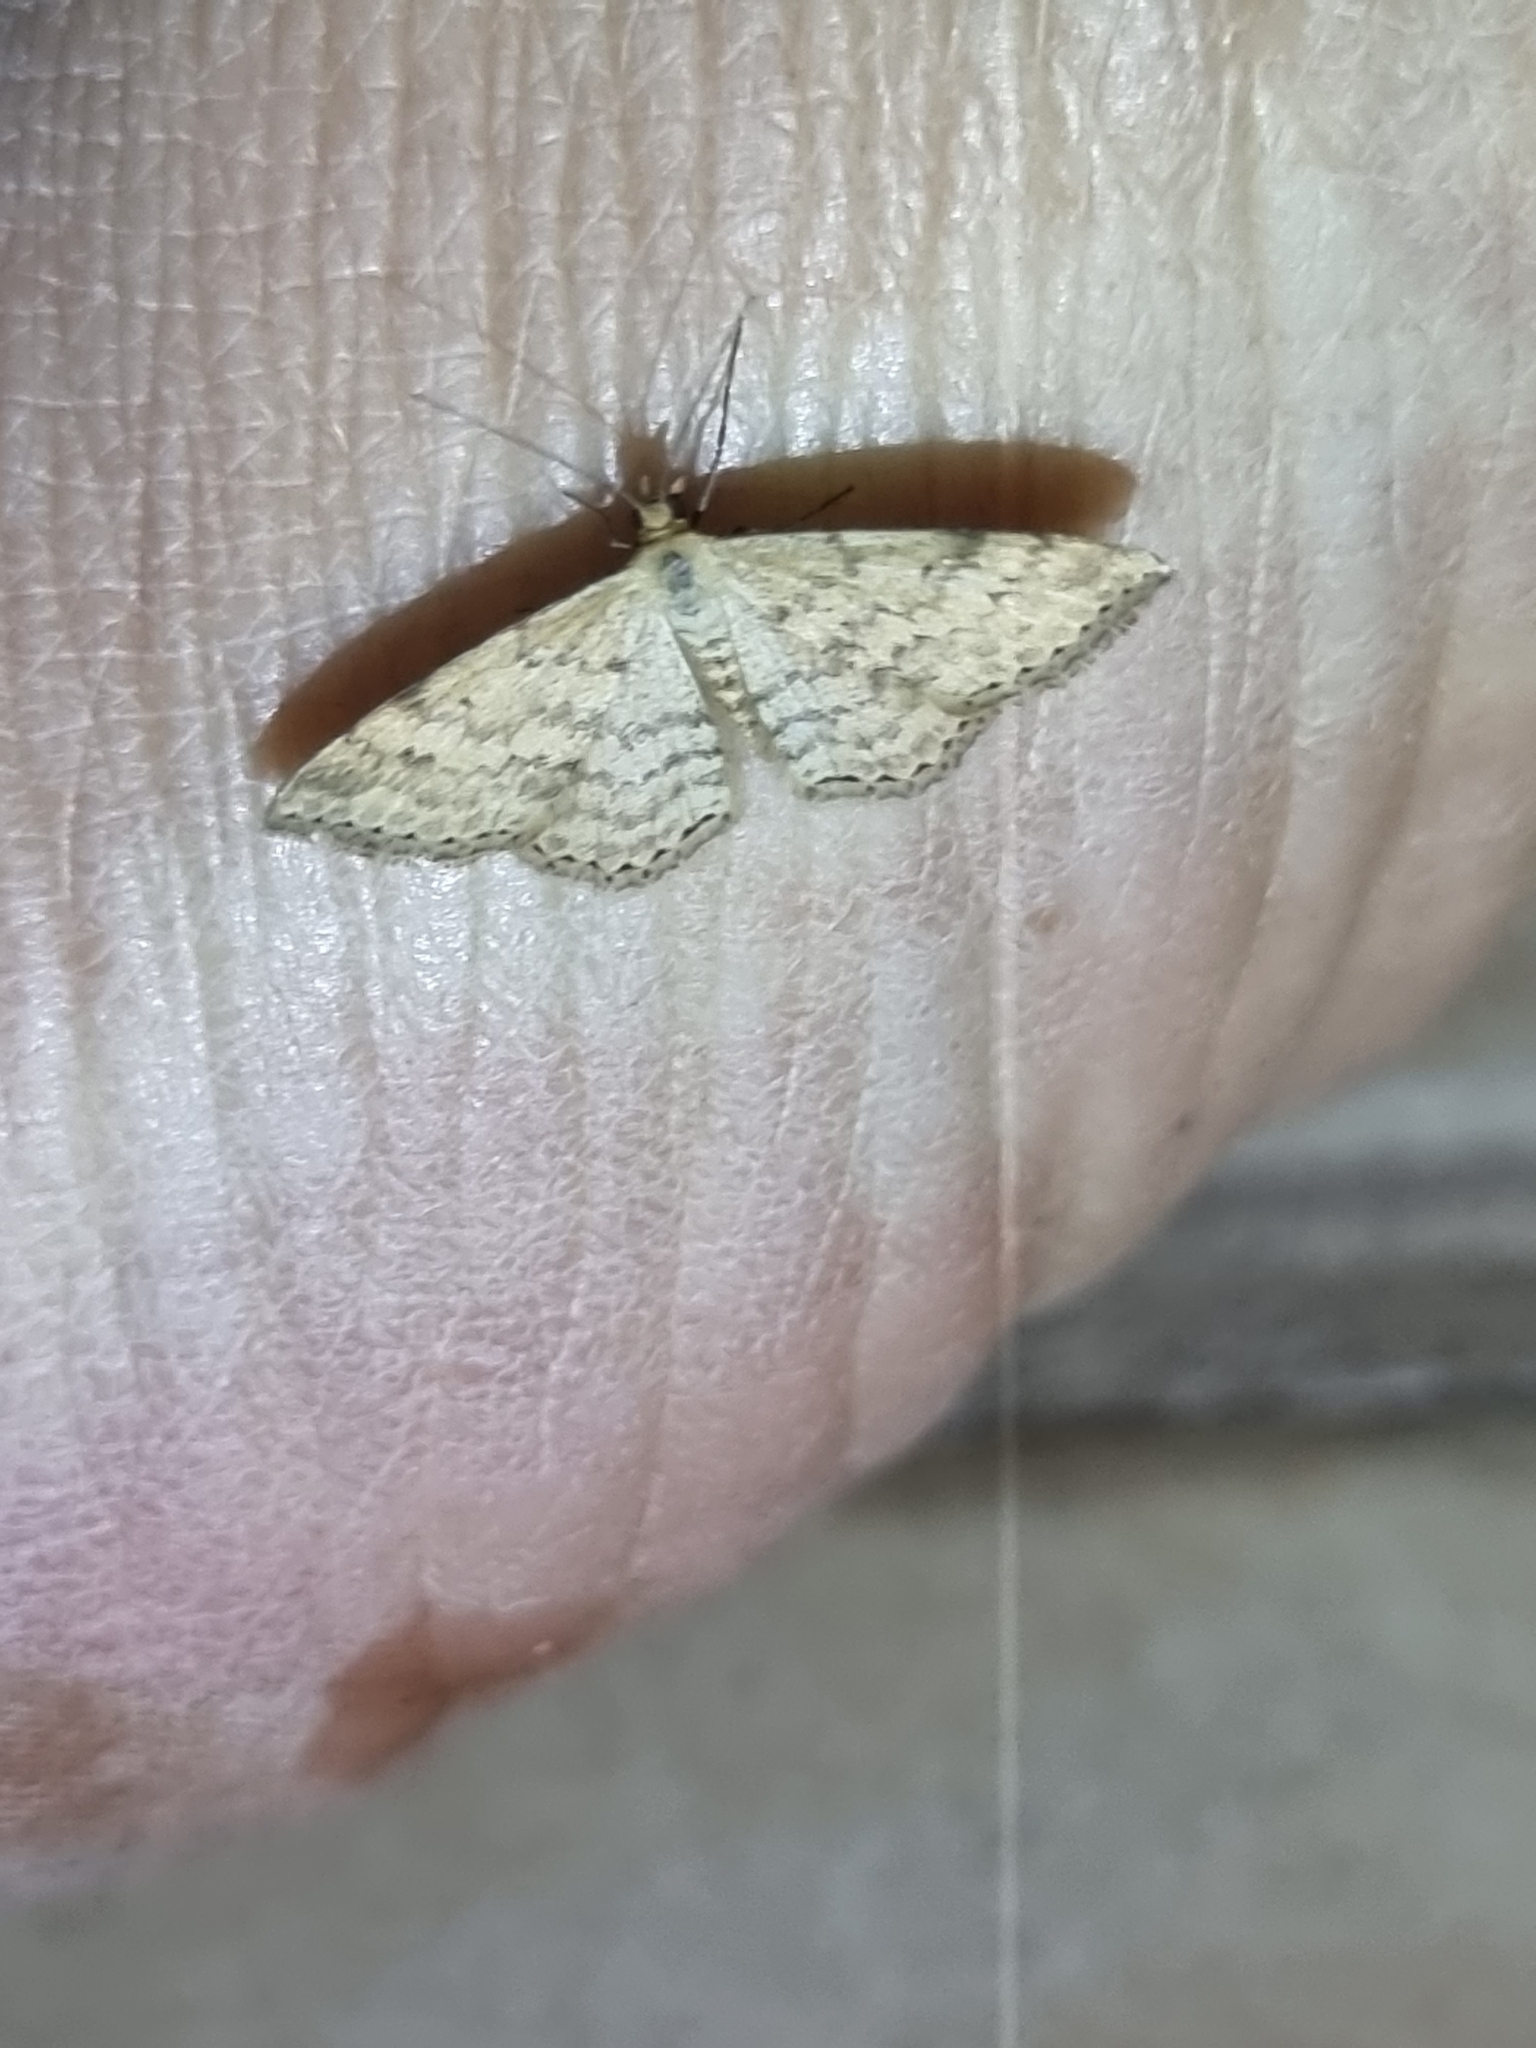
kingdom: Animalia
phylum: Arthropoda
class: Insecta
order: Lepidoptera
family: Geometridae
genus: Scopula
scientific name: Scopula rubraria
